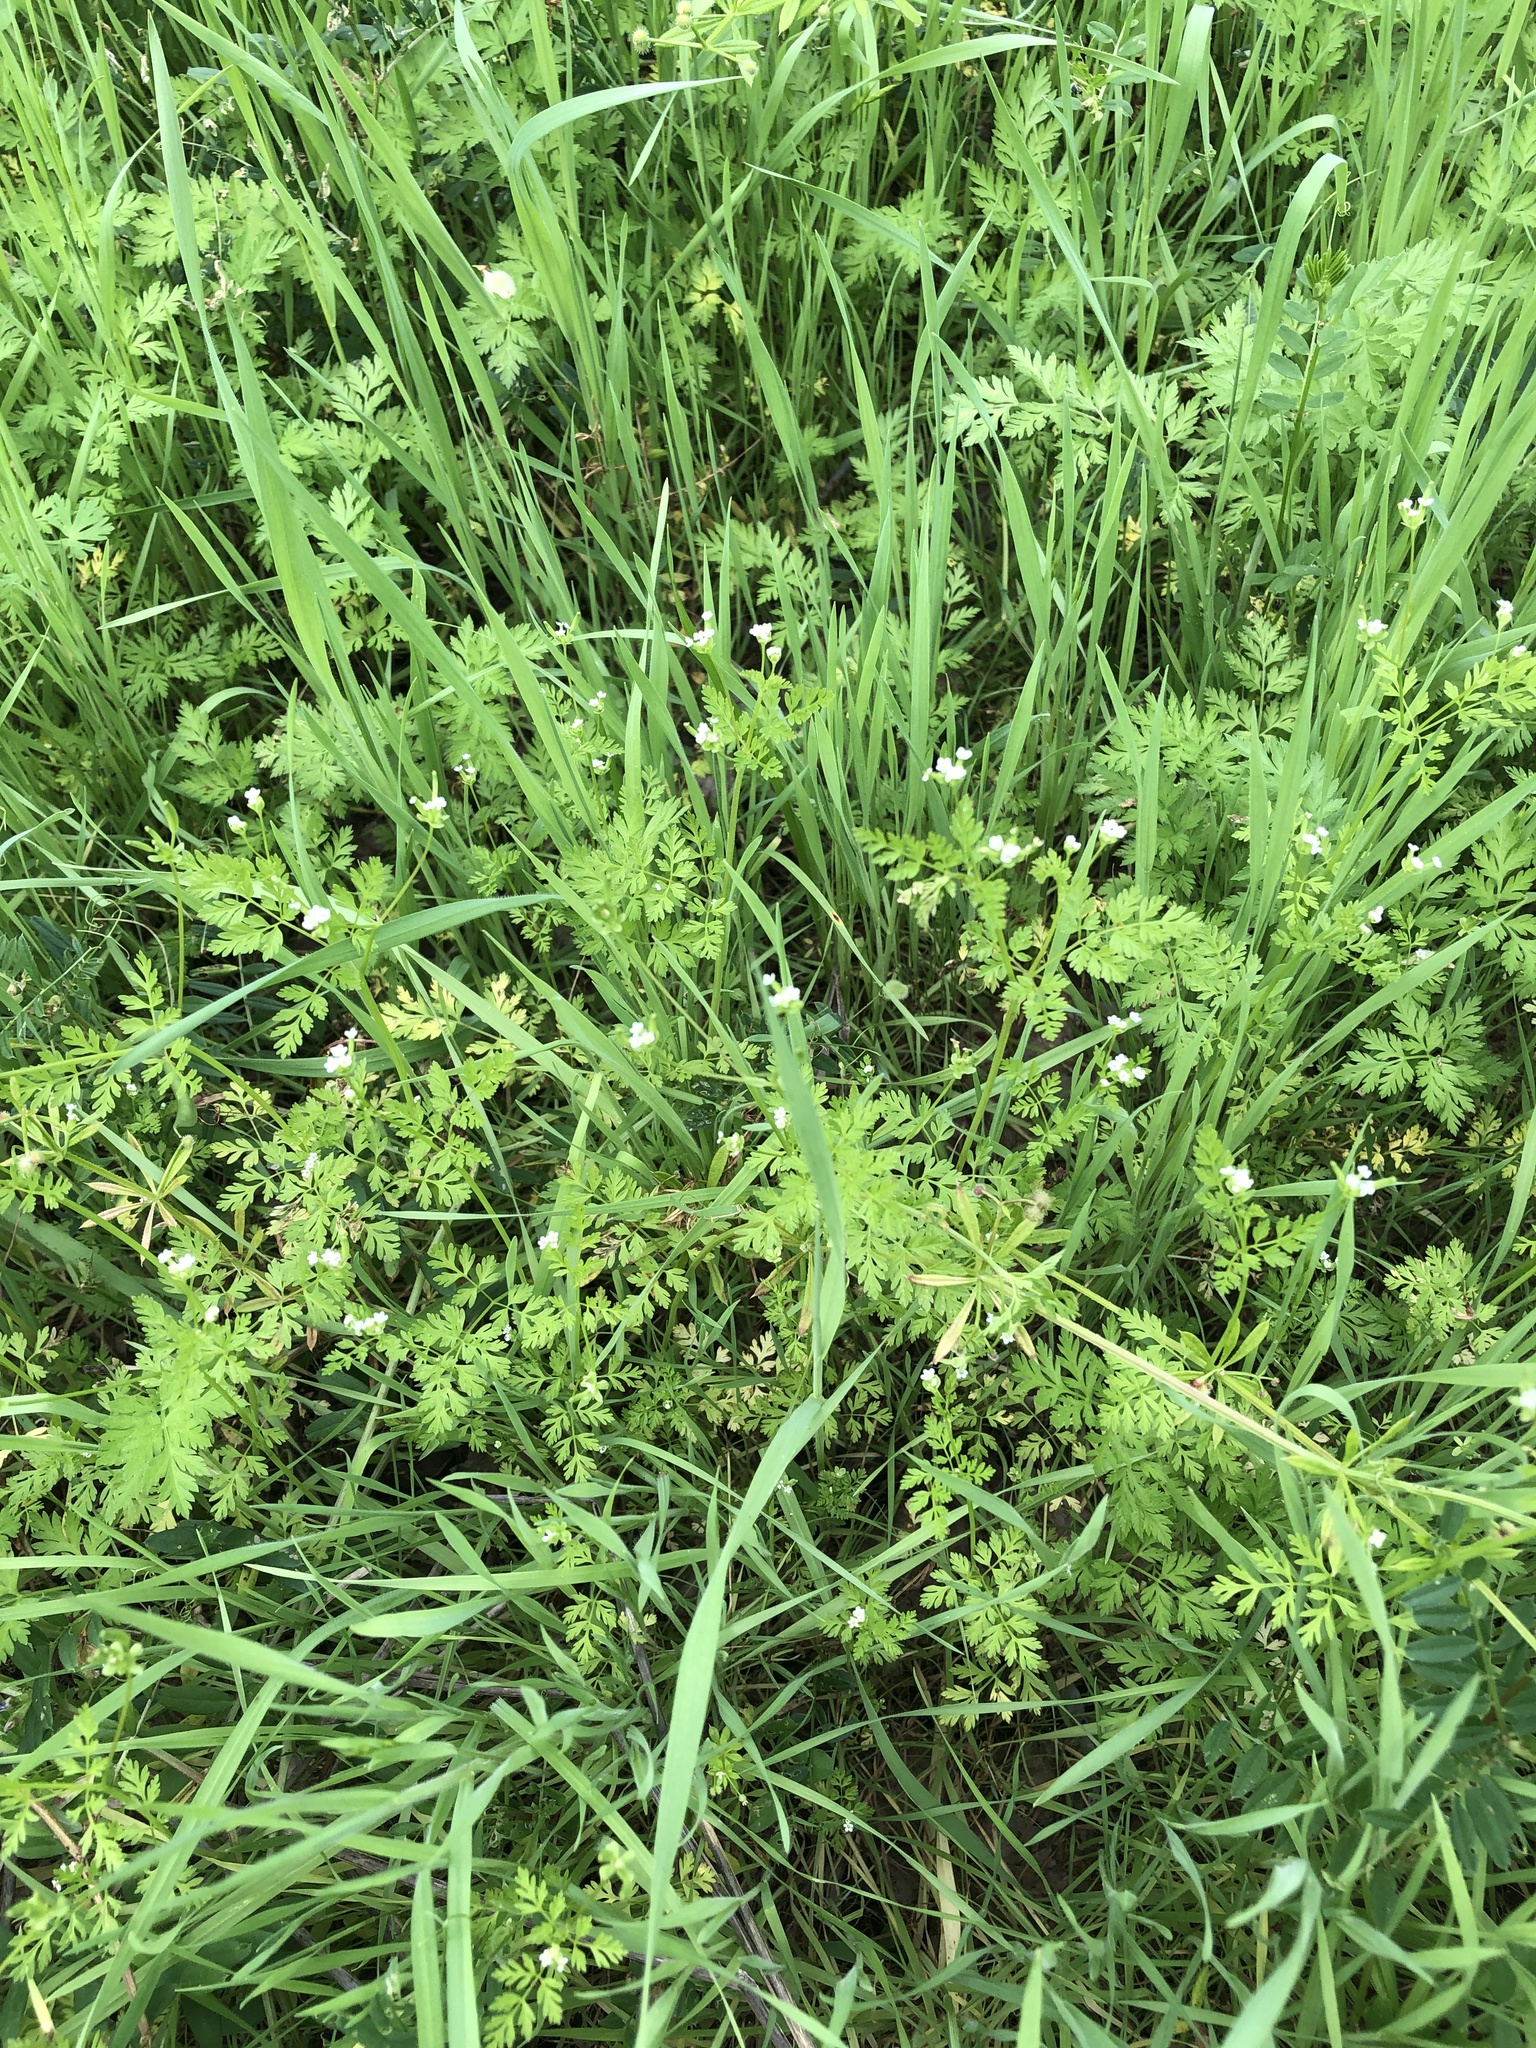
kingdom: Plantae
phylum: Tracheophyta
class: Magnoliopsida
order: Apiales
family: Apiaceae
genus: Chaerophyllum
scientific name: Chaerophyllum tainturieri
